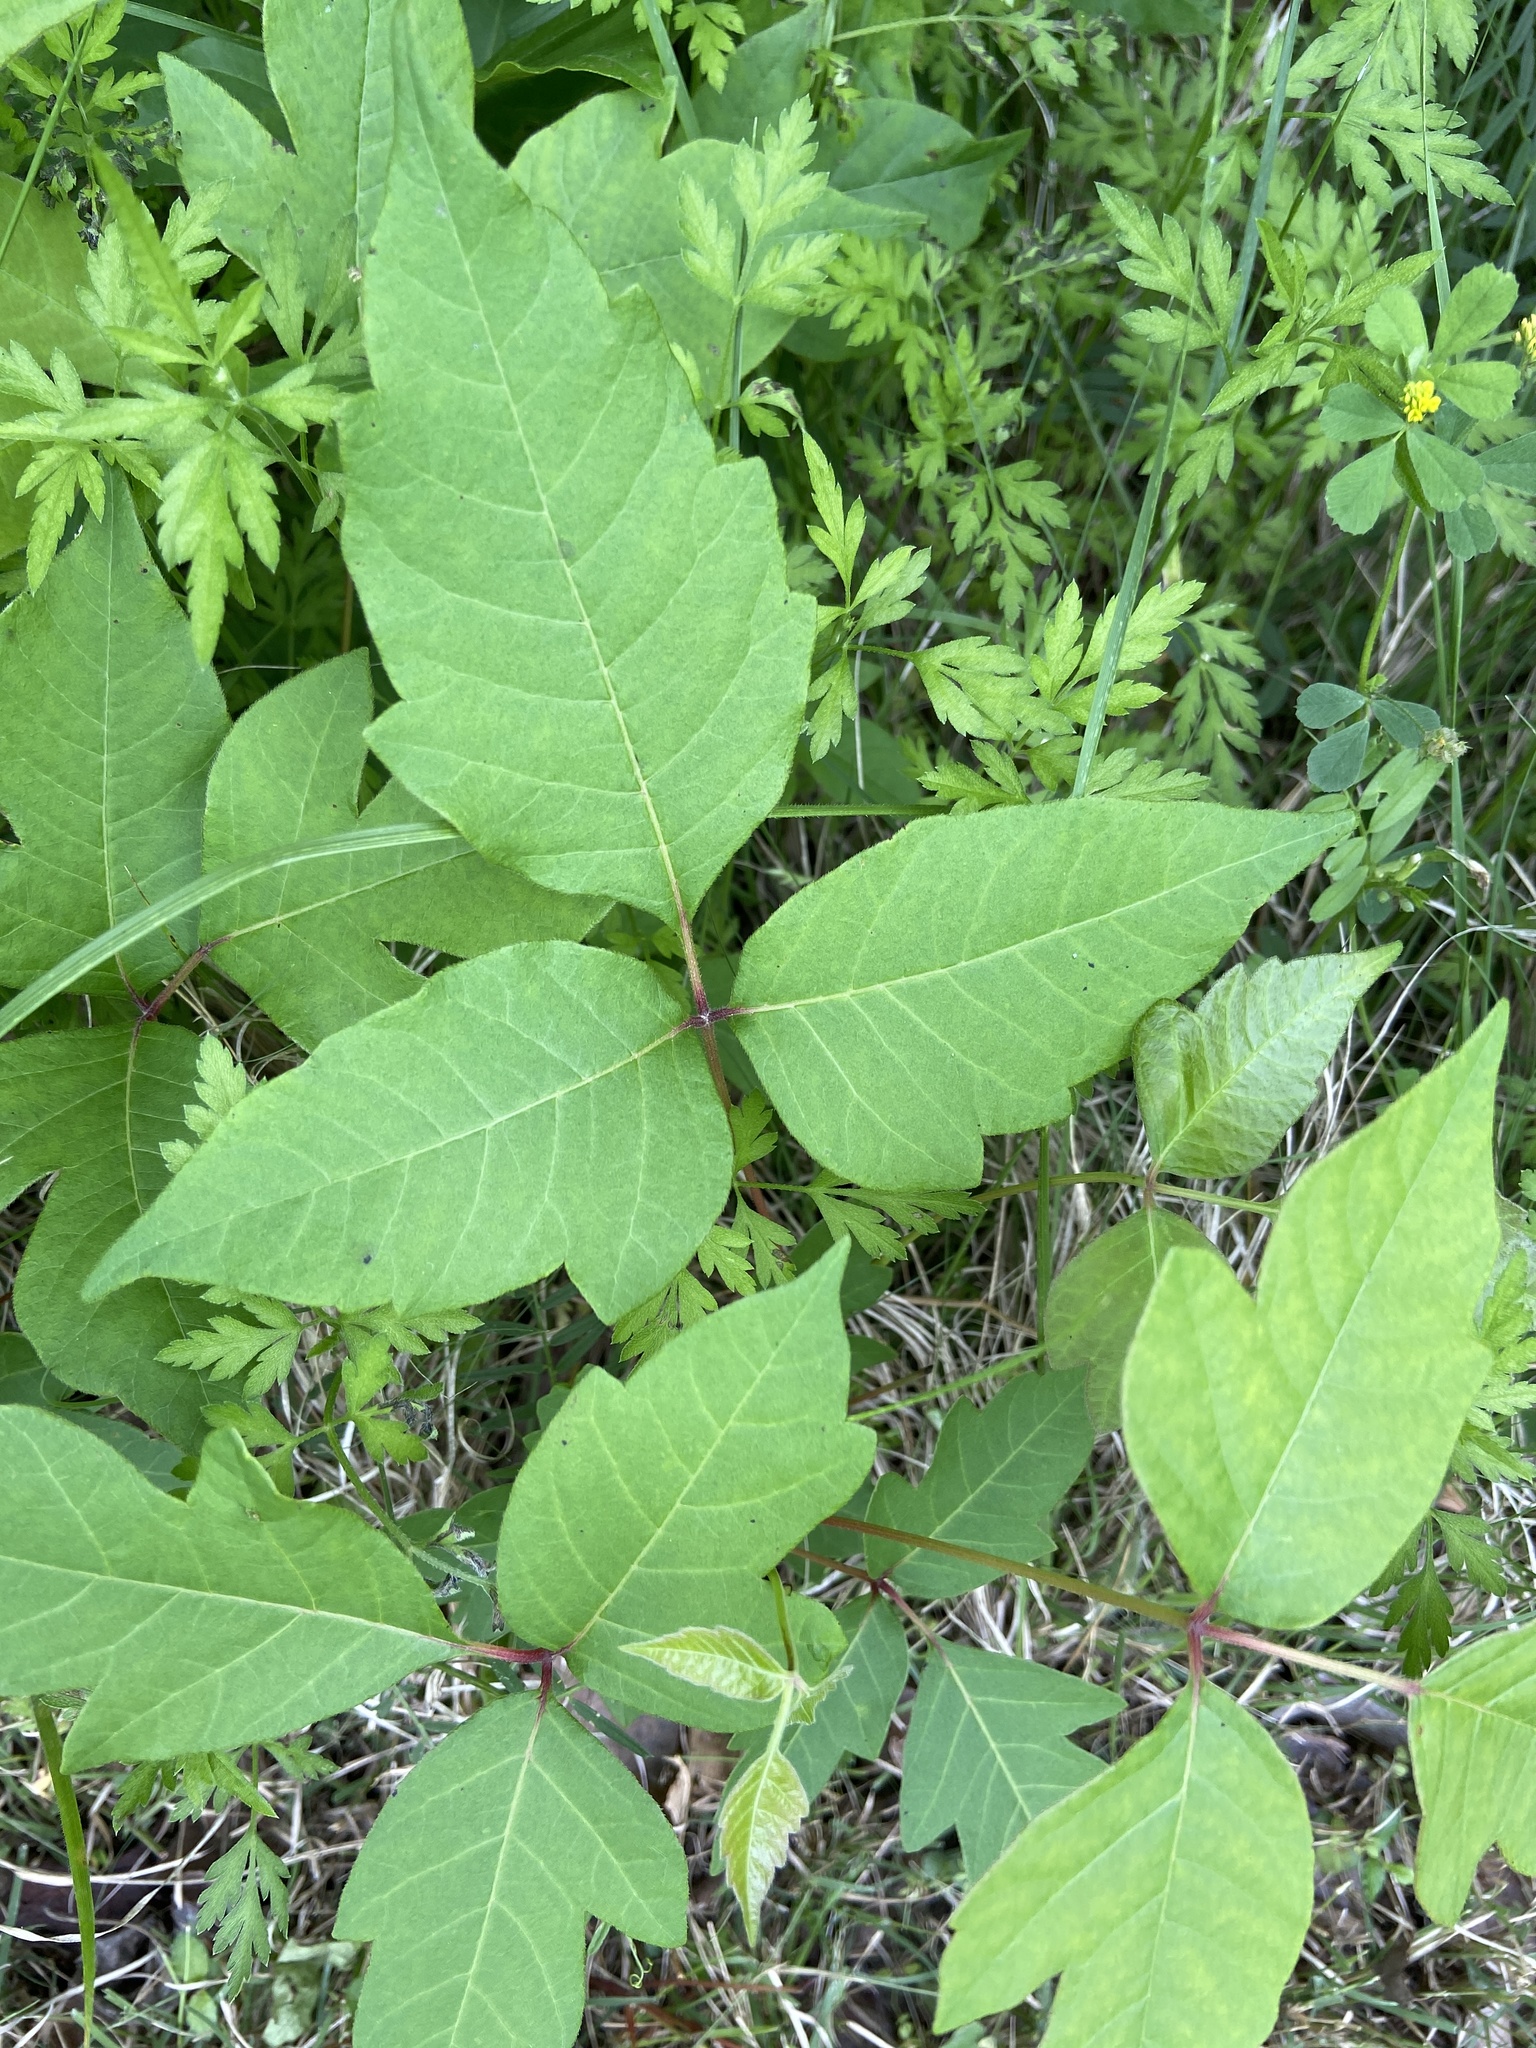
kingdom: Plantae
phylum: Tracheophyta
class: Magnoliopsida
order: Sapindales
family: Anacardiaceae
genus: Toxicodendron
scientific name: Toxicodendron radicans
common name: Poison ivy
